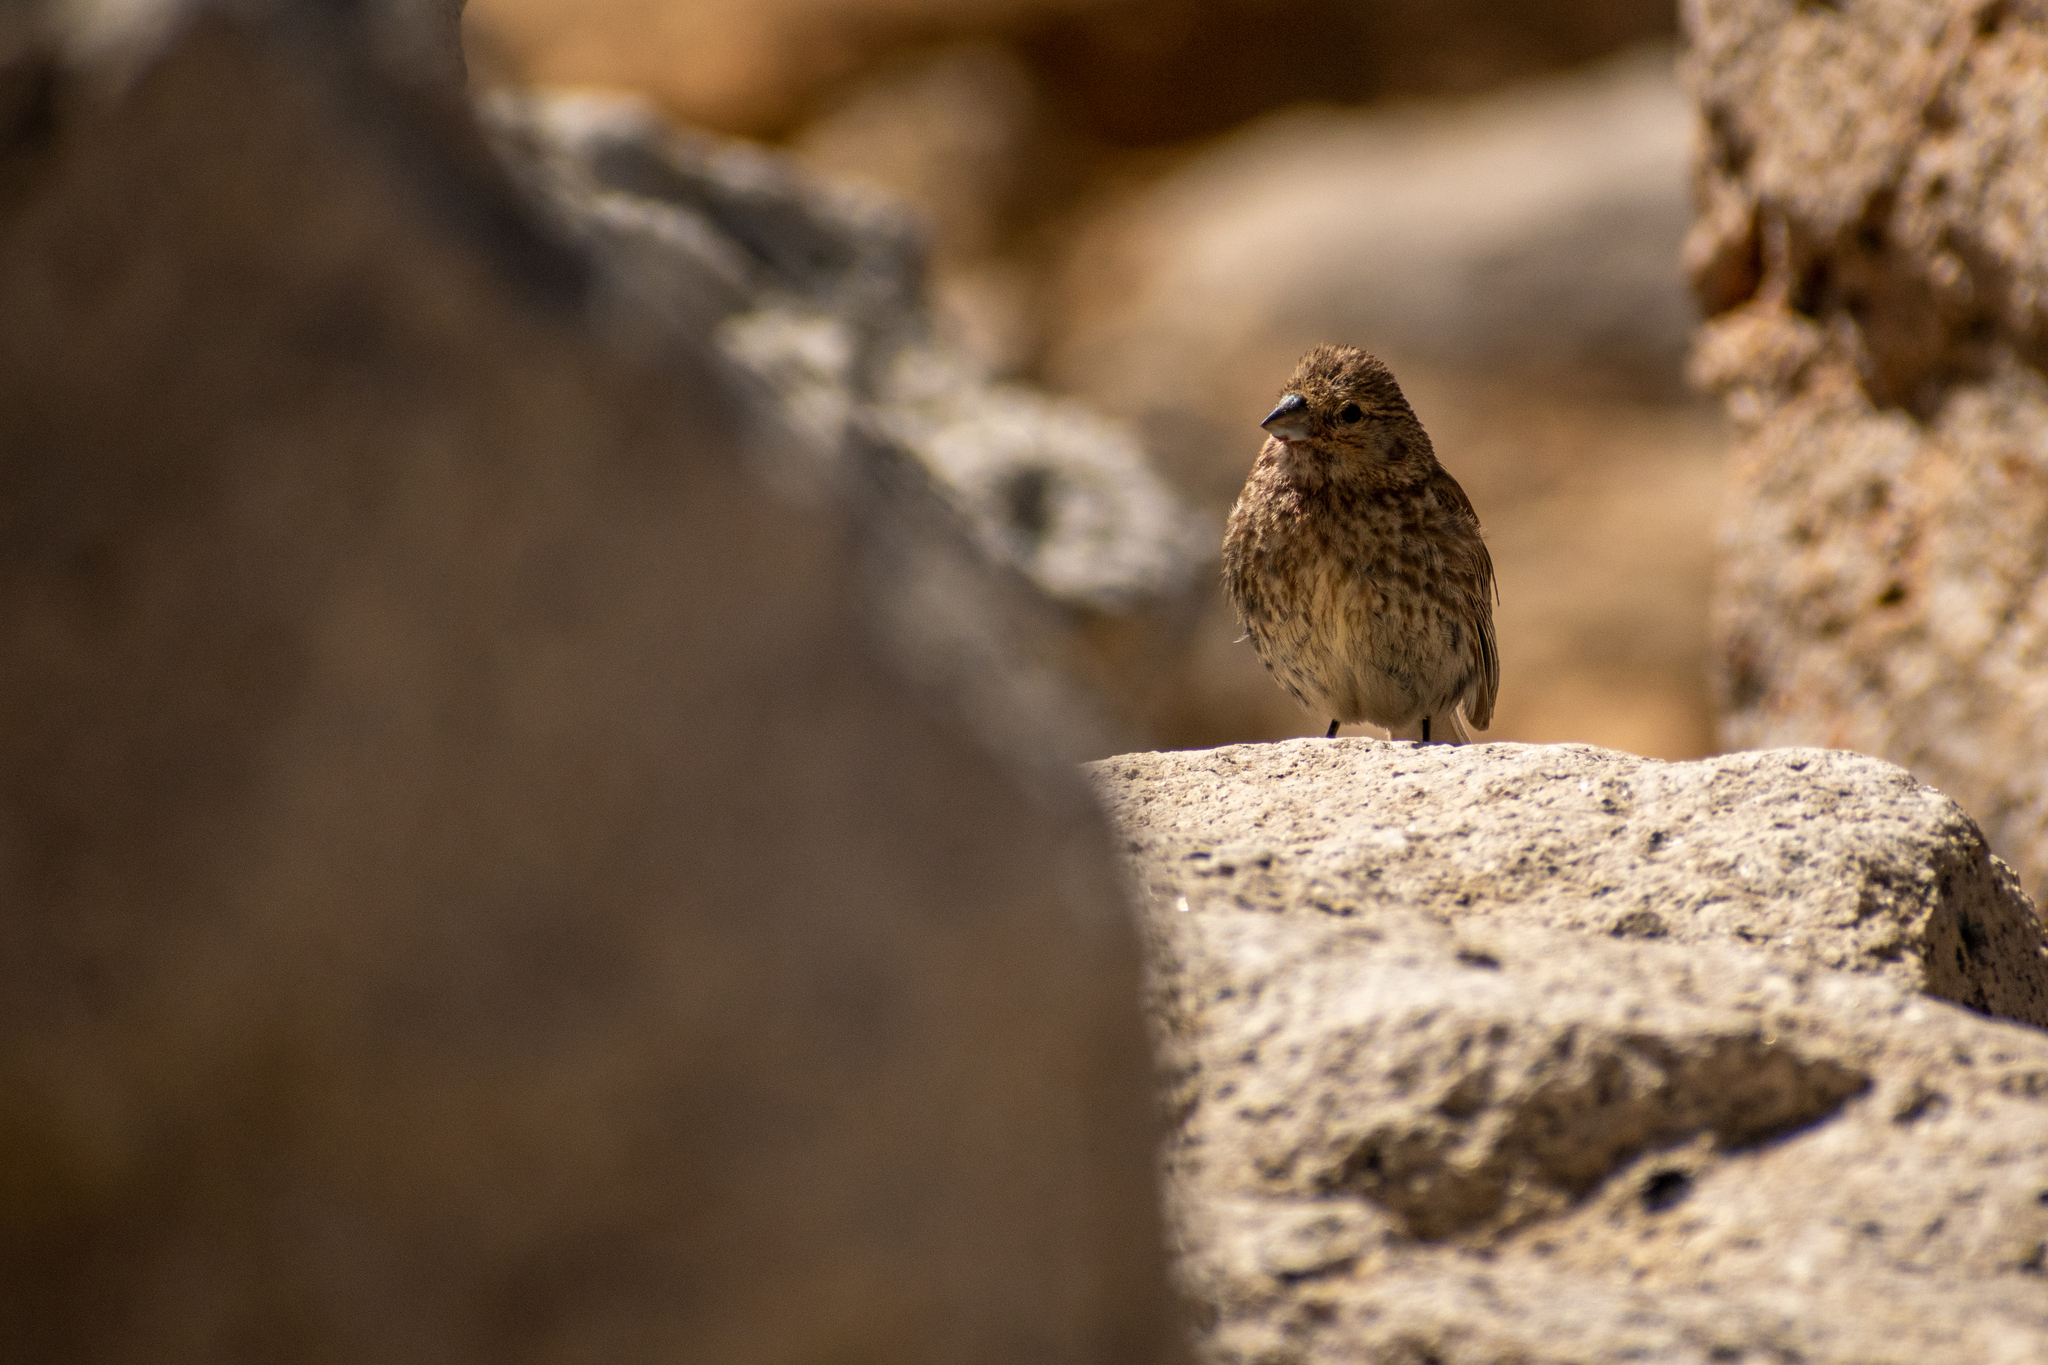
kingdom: Animalia
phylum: Chordata
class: Aves
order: Passeriformes
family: Thraupidae
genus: Melanodera
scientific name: Melanodera xanthogramma
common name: Yellow-bridled finch
